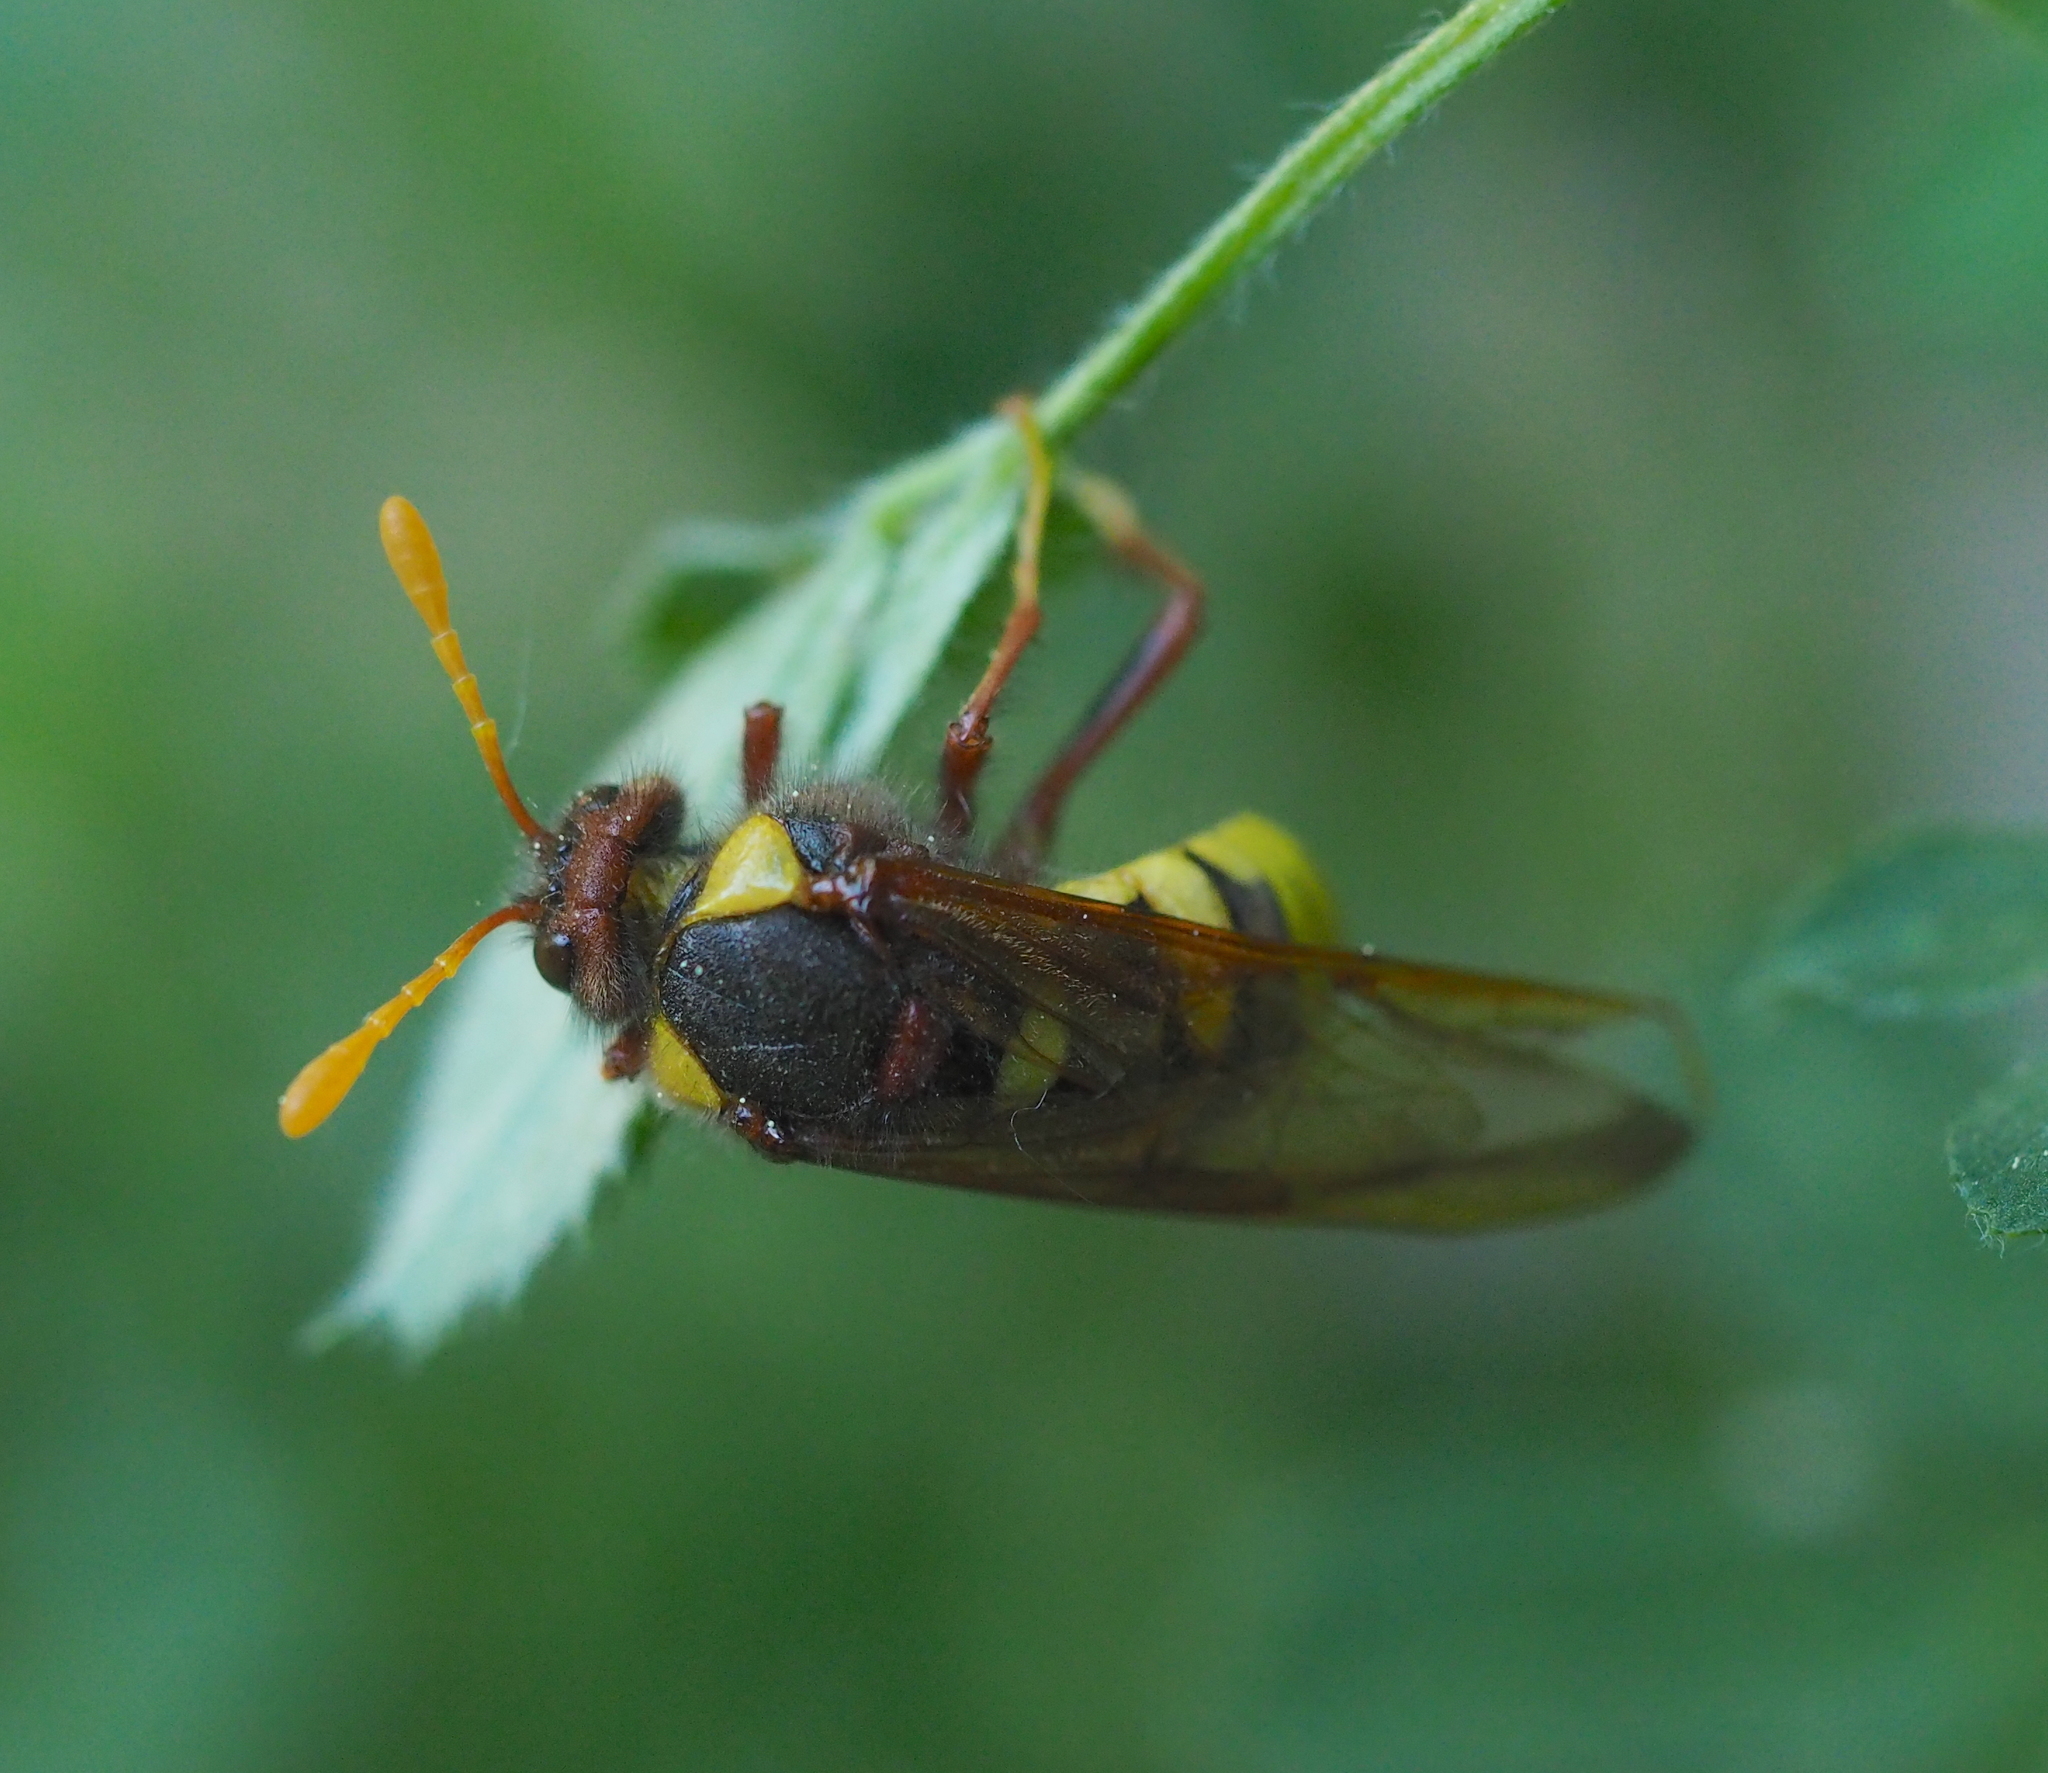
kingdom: Animalia
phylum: Arthropoda
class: Insecta
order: Hymenoptera
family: Cimbicidae
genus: Cimbex
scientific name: Cimbex quadrimaculatus
